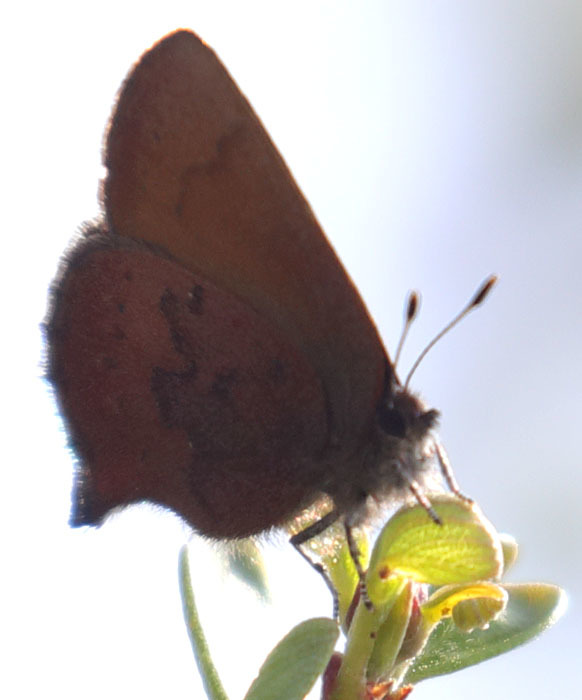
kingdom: Animalia
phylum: Arthropoda
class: Insecta
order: Lepidoptera
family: Lycaenidae
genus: Incisalia
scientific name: Incisalia irioides
